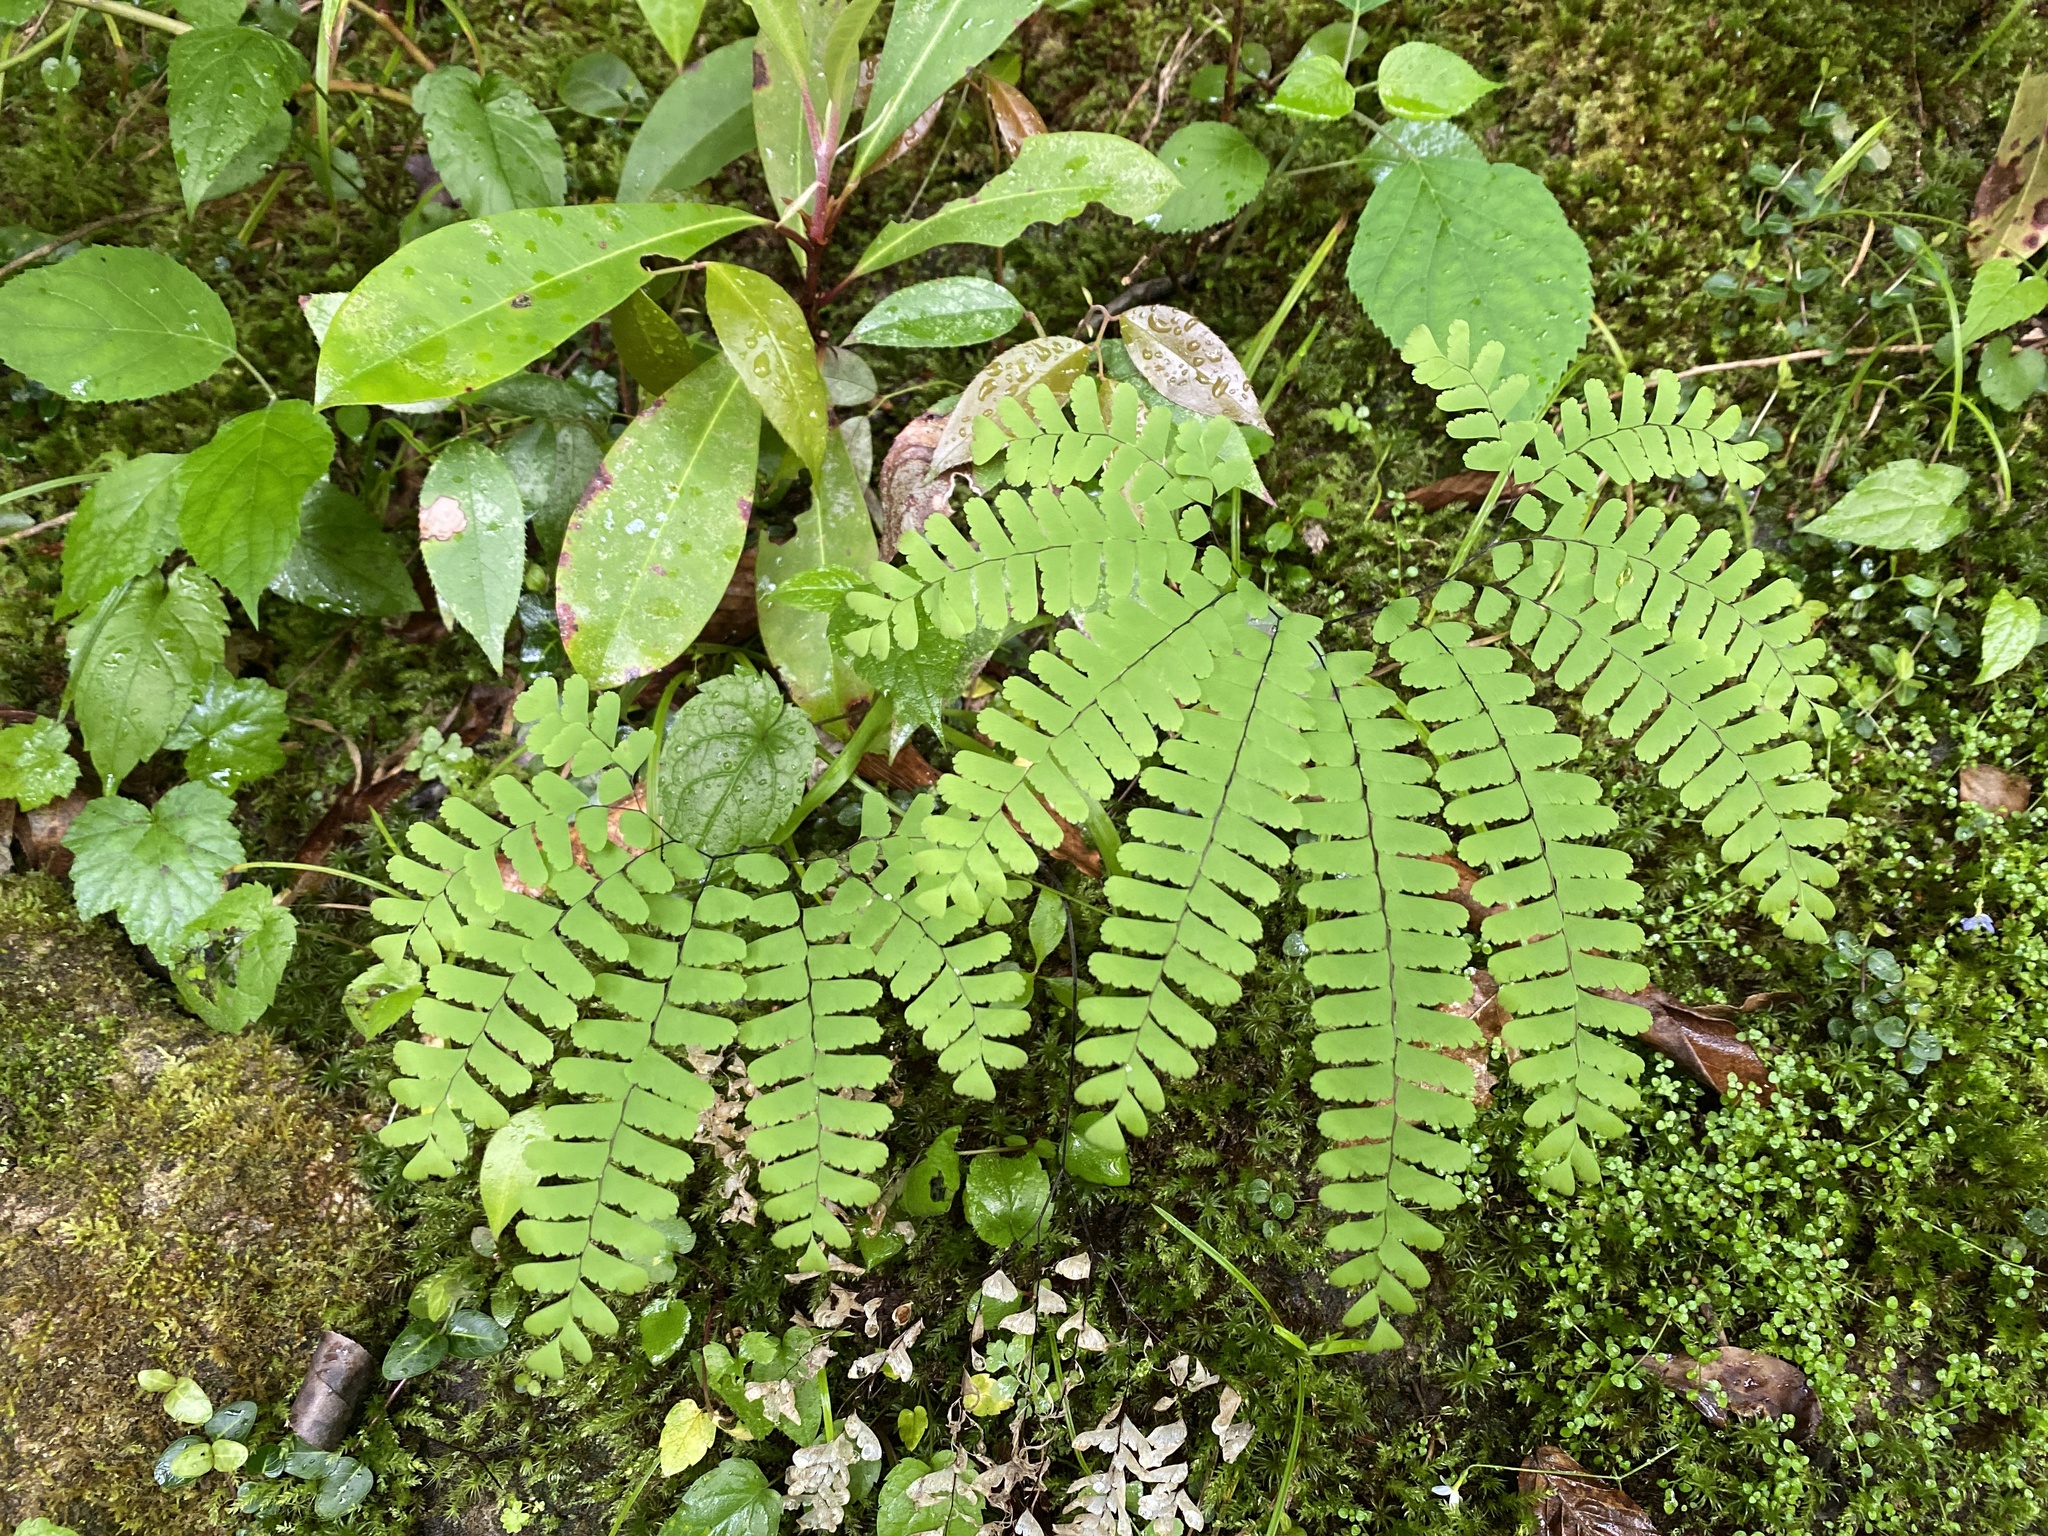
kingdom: Plantae
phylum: Tracheophyta
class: Polypodiopsida
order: Polypodiales
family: Pteridaceae
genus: Adiantum
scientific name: Adiantum pedatum
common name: Five-finger fern
